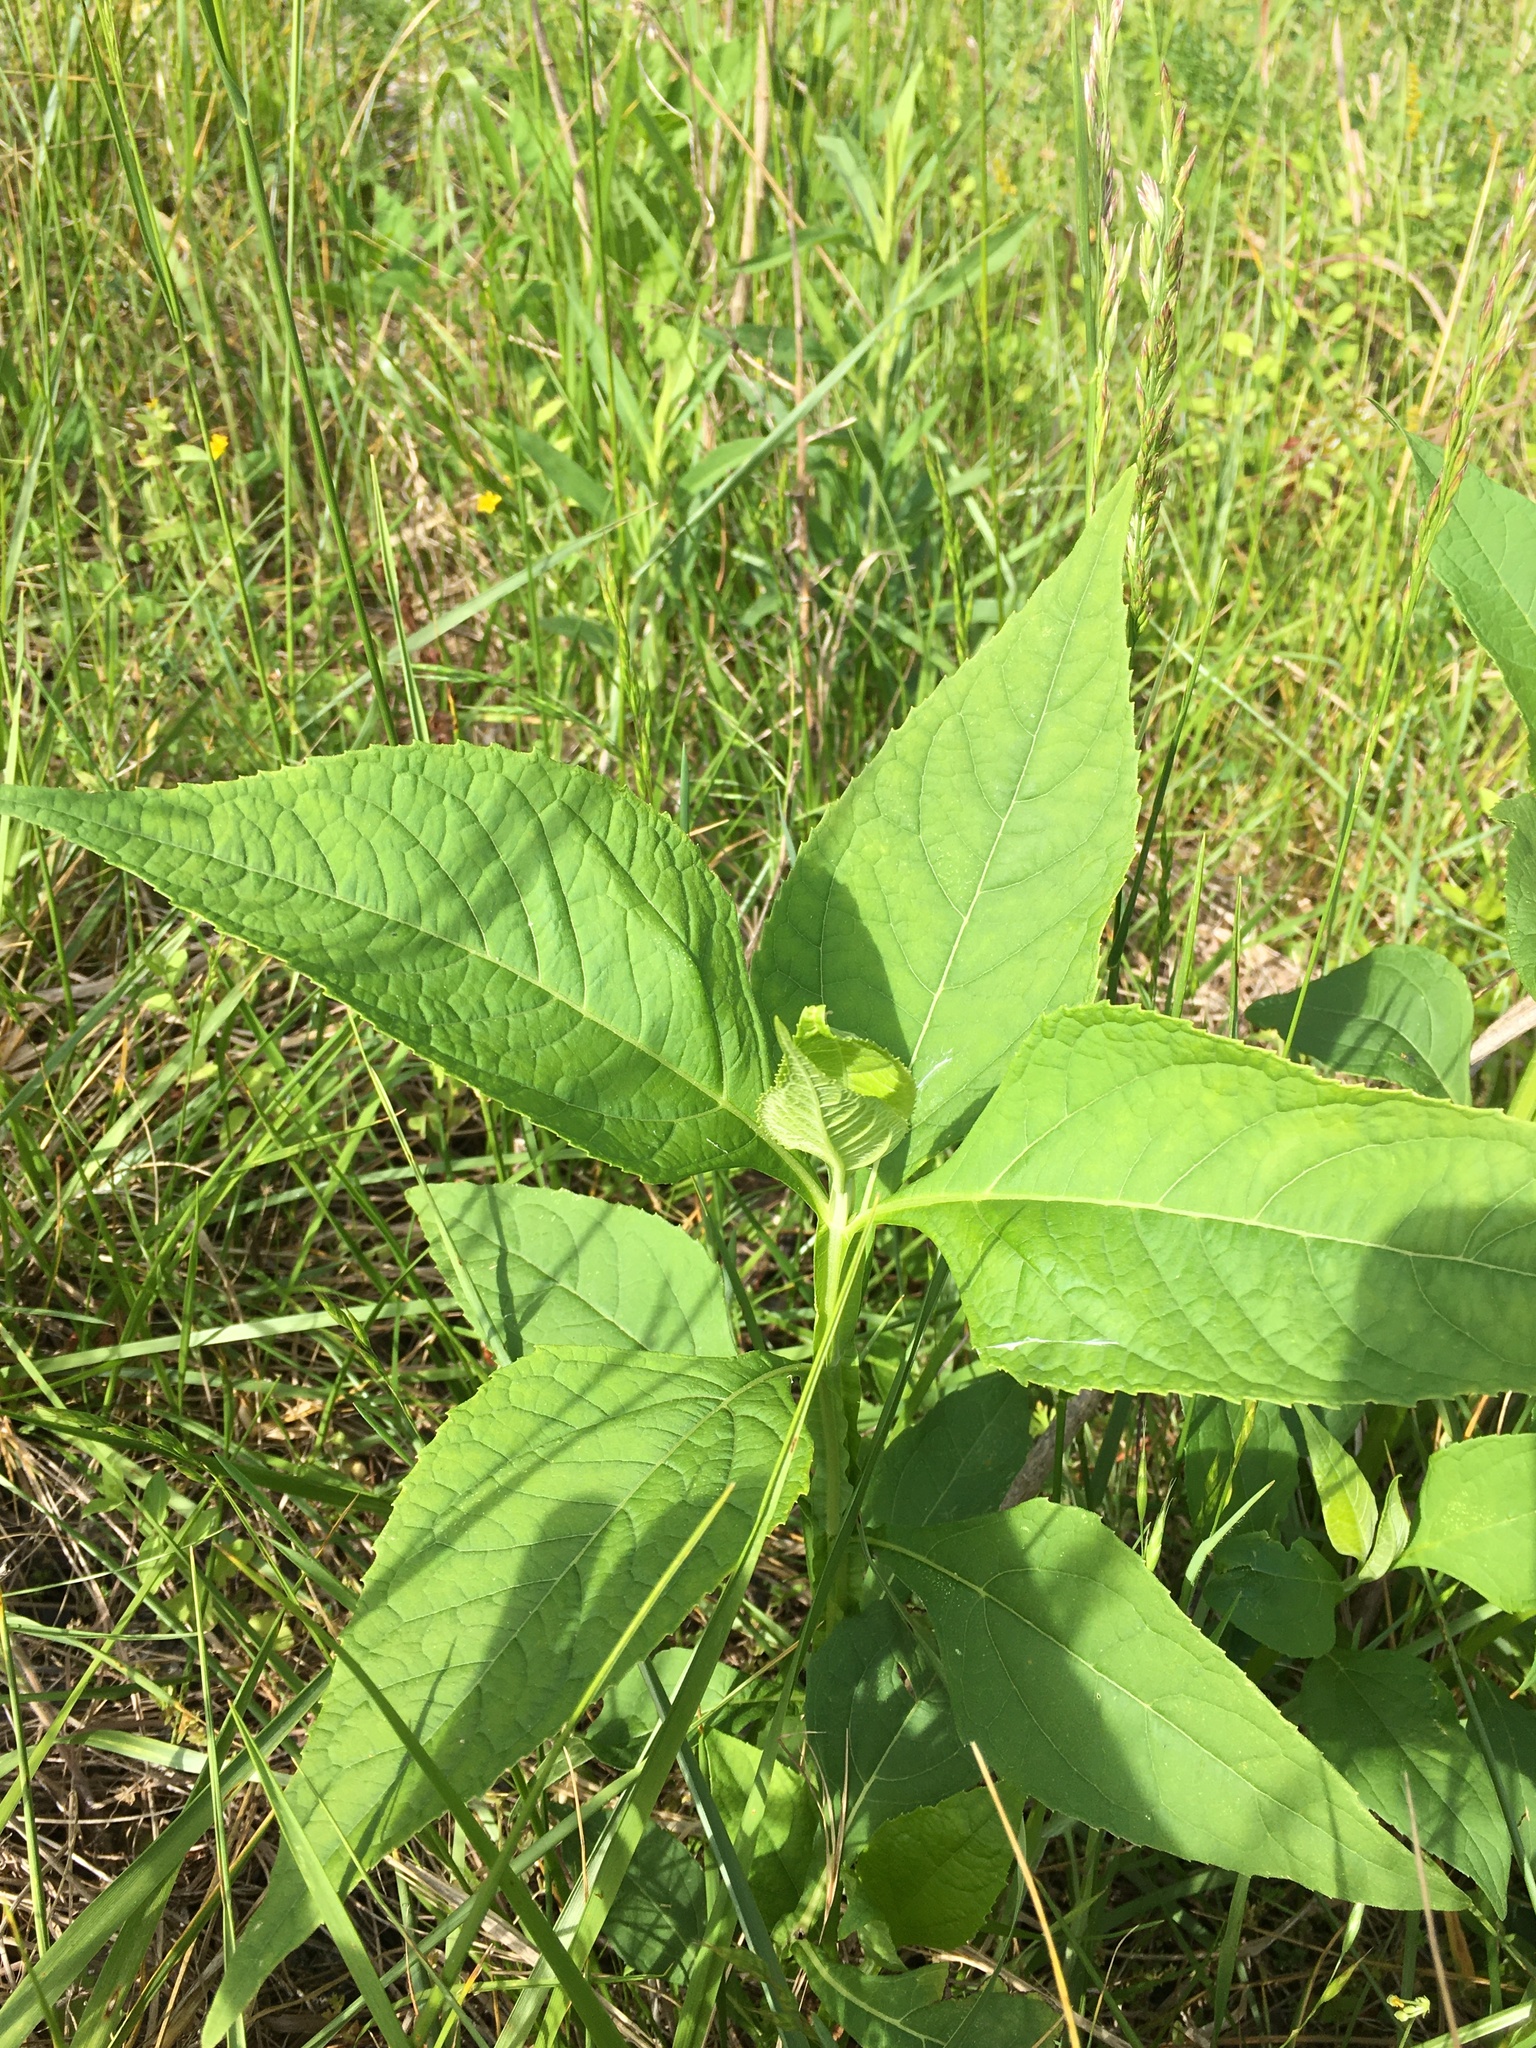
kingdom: Plantae
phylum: Tracheophyta
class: Magnoliopsida
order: Asterales
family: Asteraceae
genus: Verbesina
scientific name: Verbesina occidentalis
